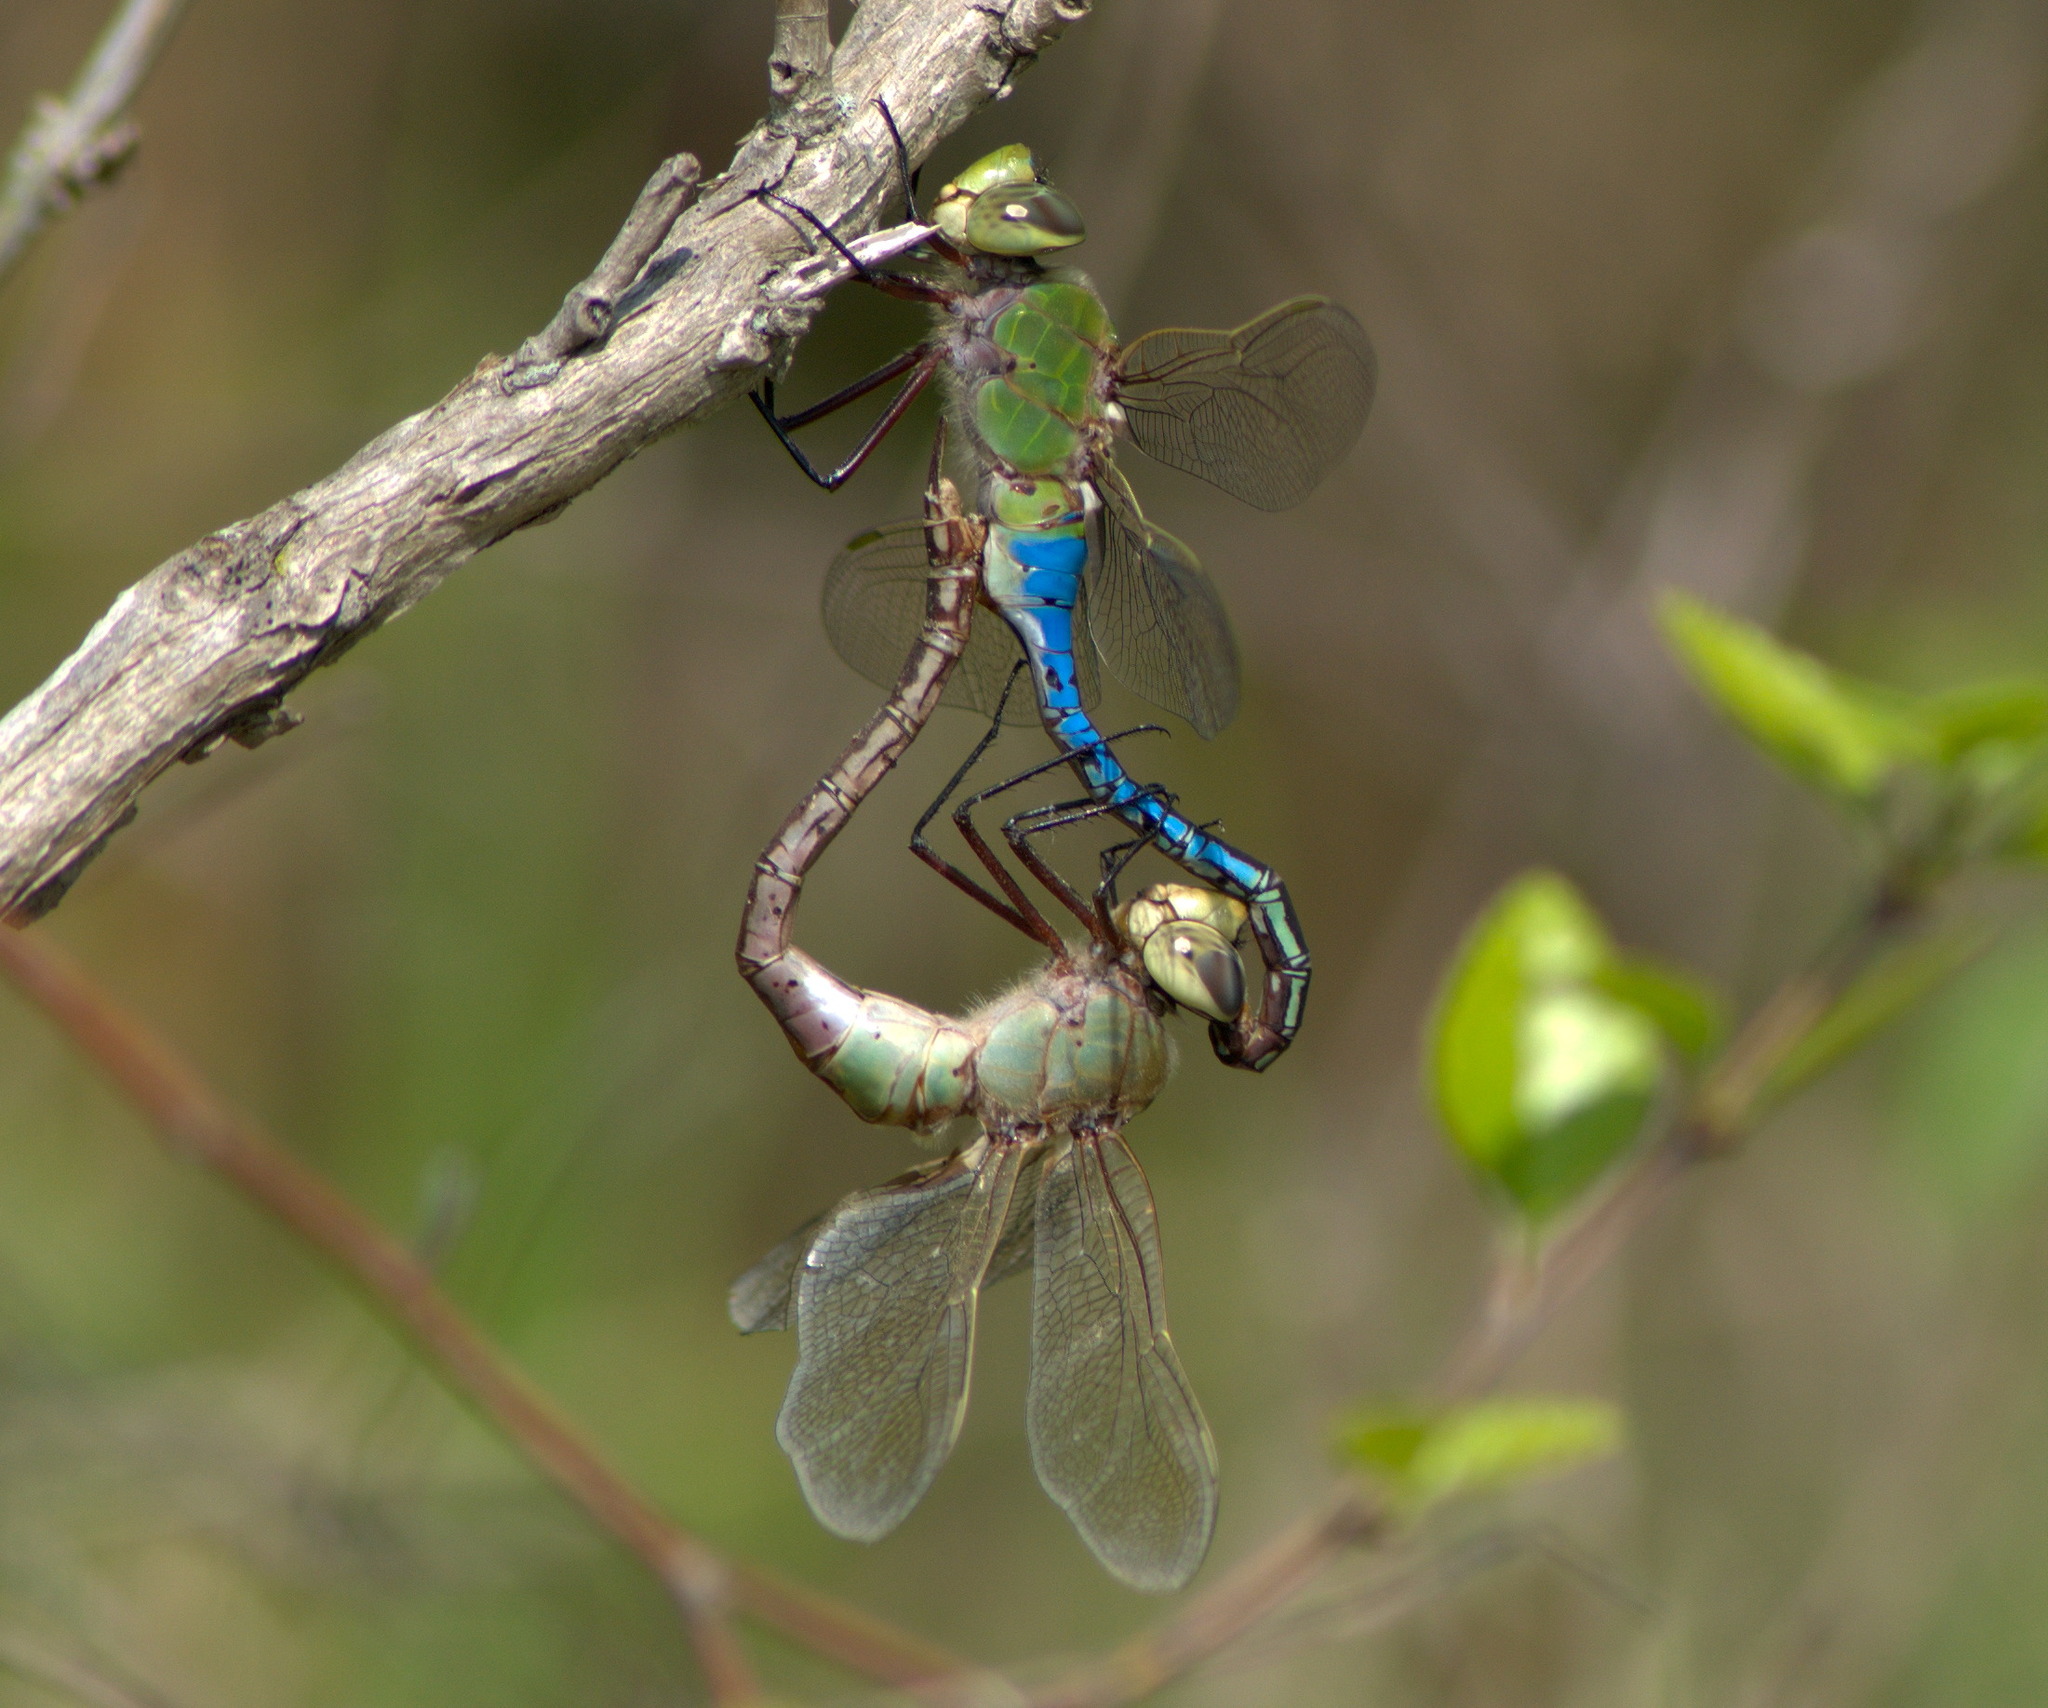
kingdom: Animalia
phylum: Arthropoda
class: Insecta
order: Odonata
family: Aeshnidae
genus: Anax
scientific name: Anax junius
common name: Common green darner
